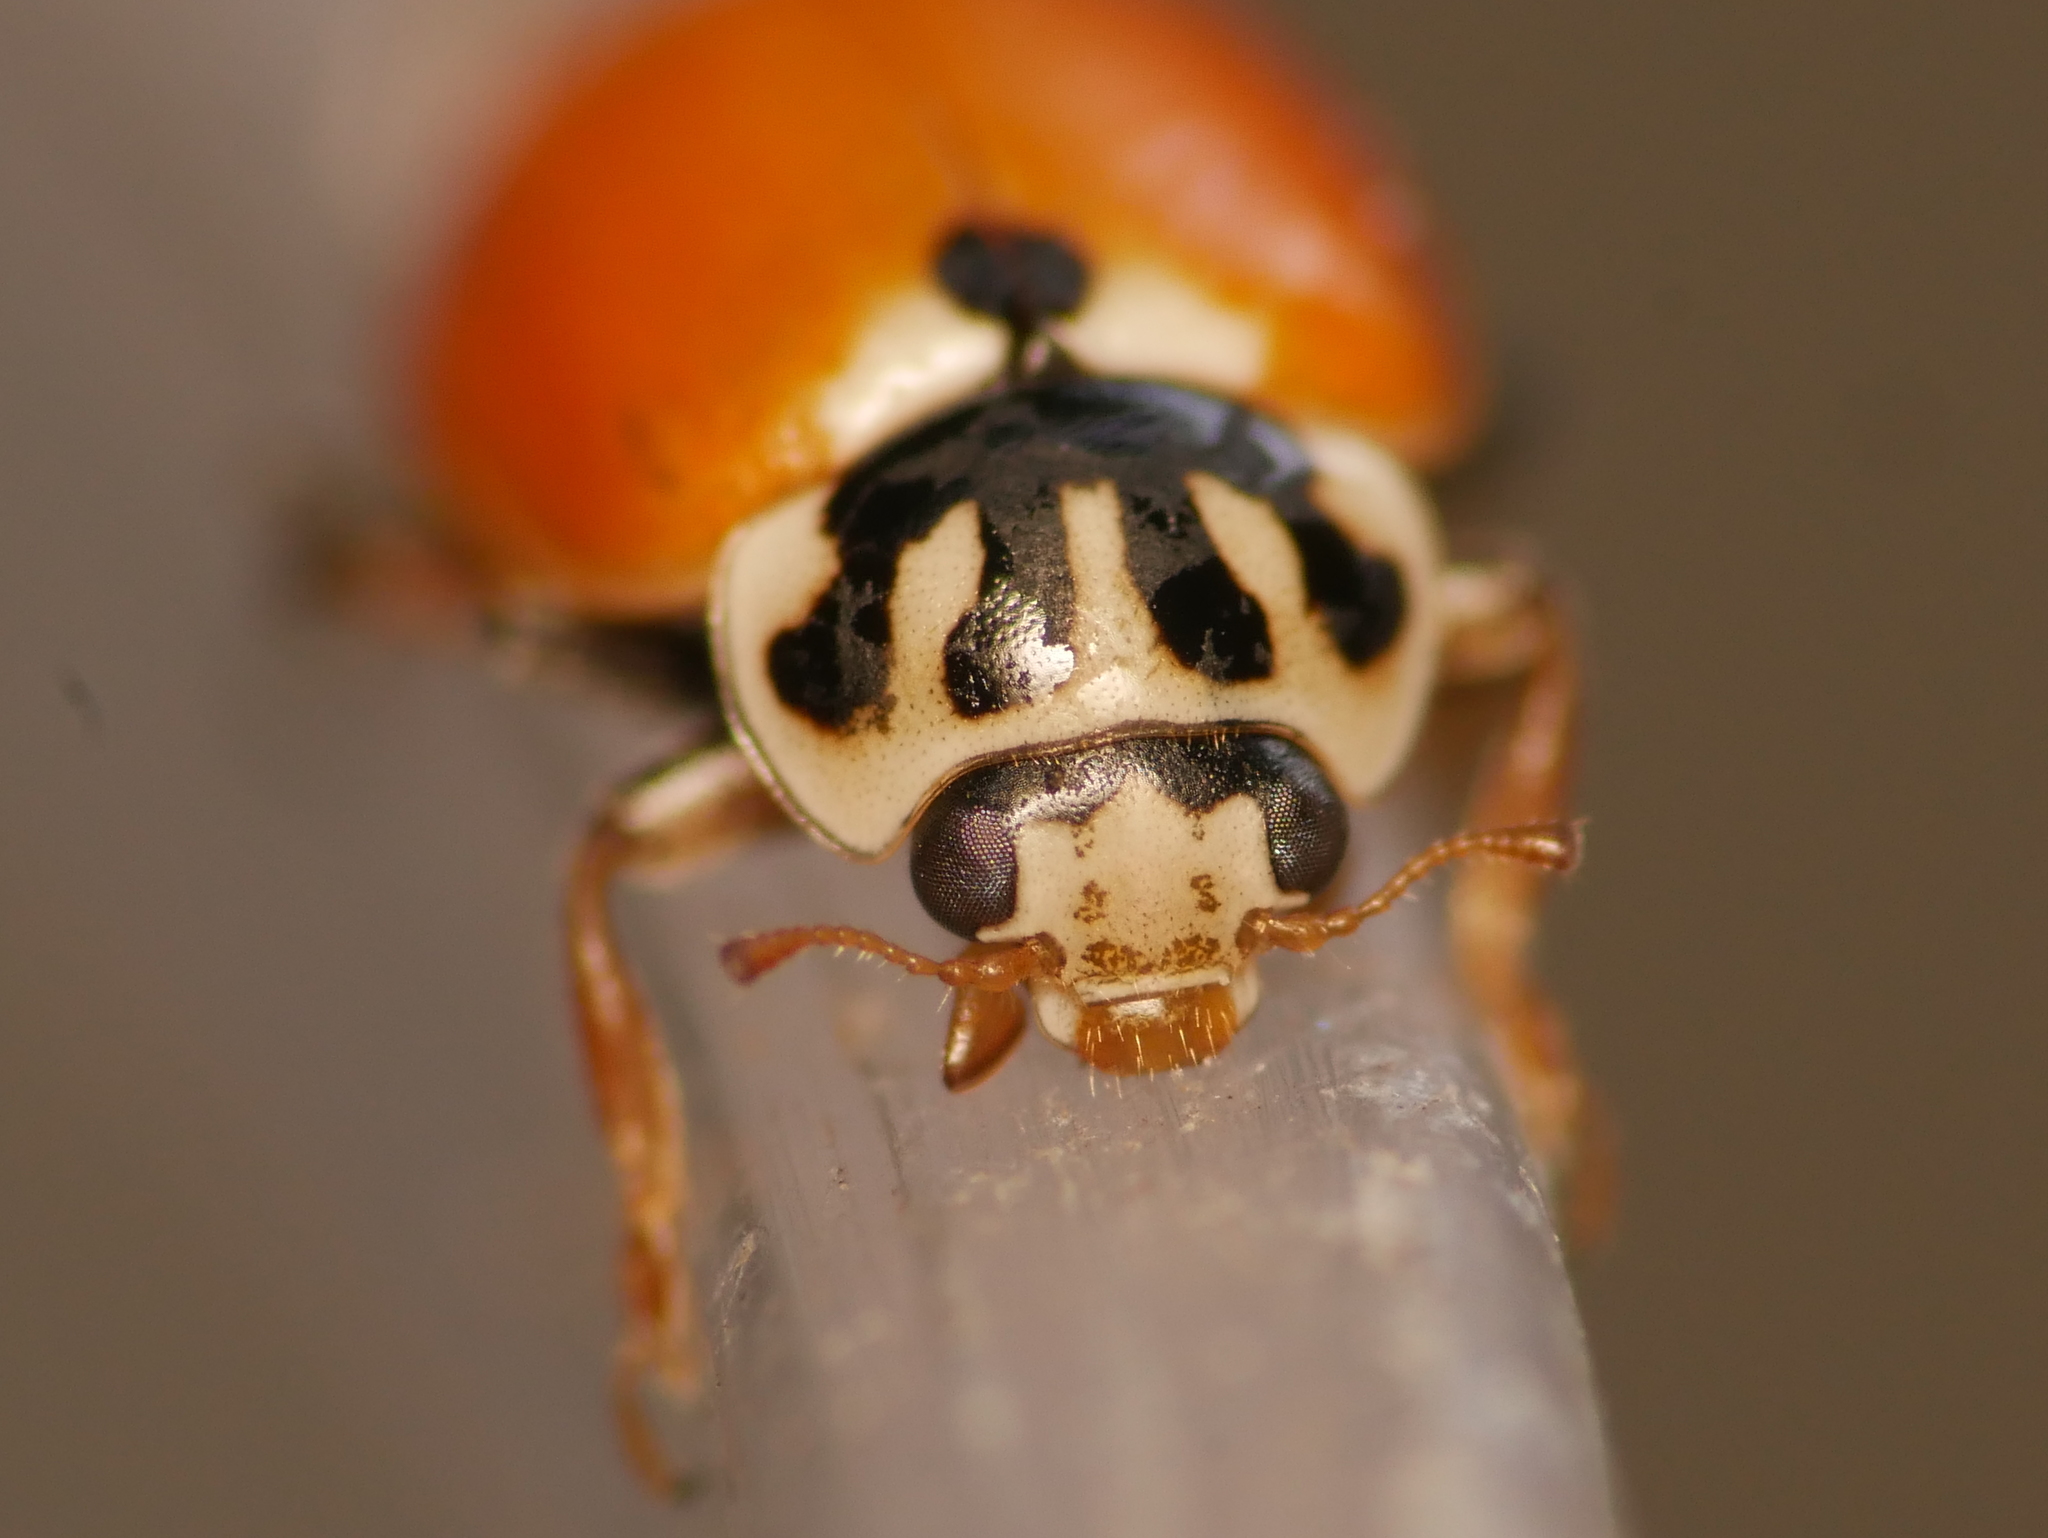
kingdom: Animalia
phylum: Arthropoda
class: Insecta
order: Coleoptera
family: Coccinellidae
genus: Hippodamia
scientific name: Hippodamia variegata
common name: Ladybird beetle
